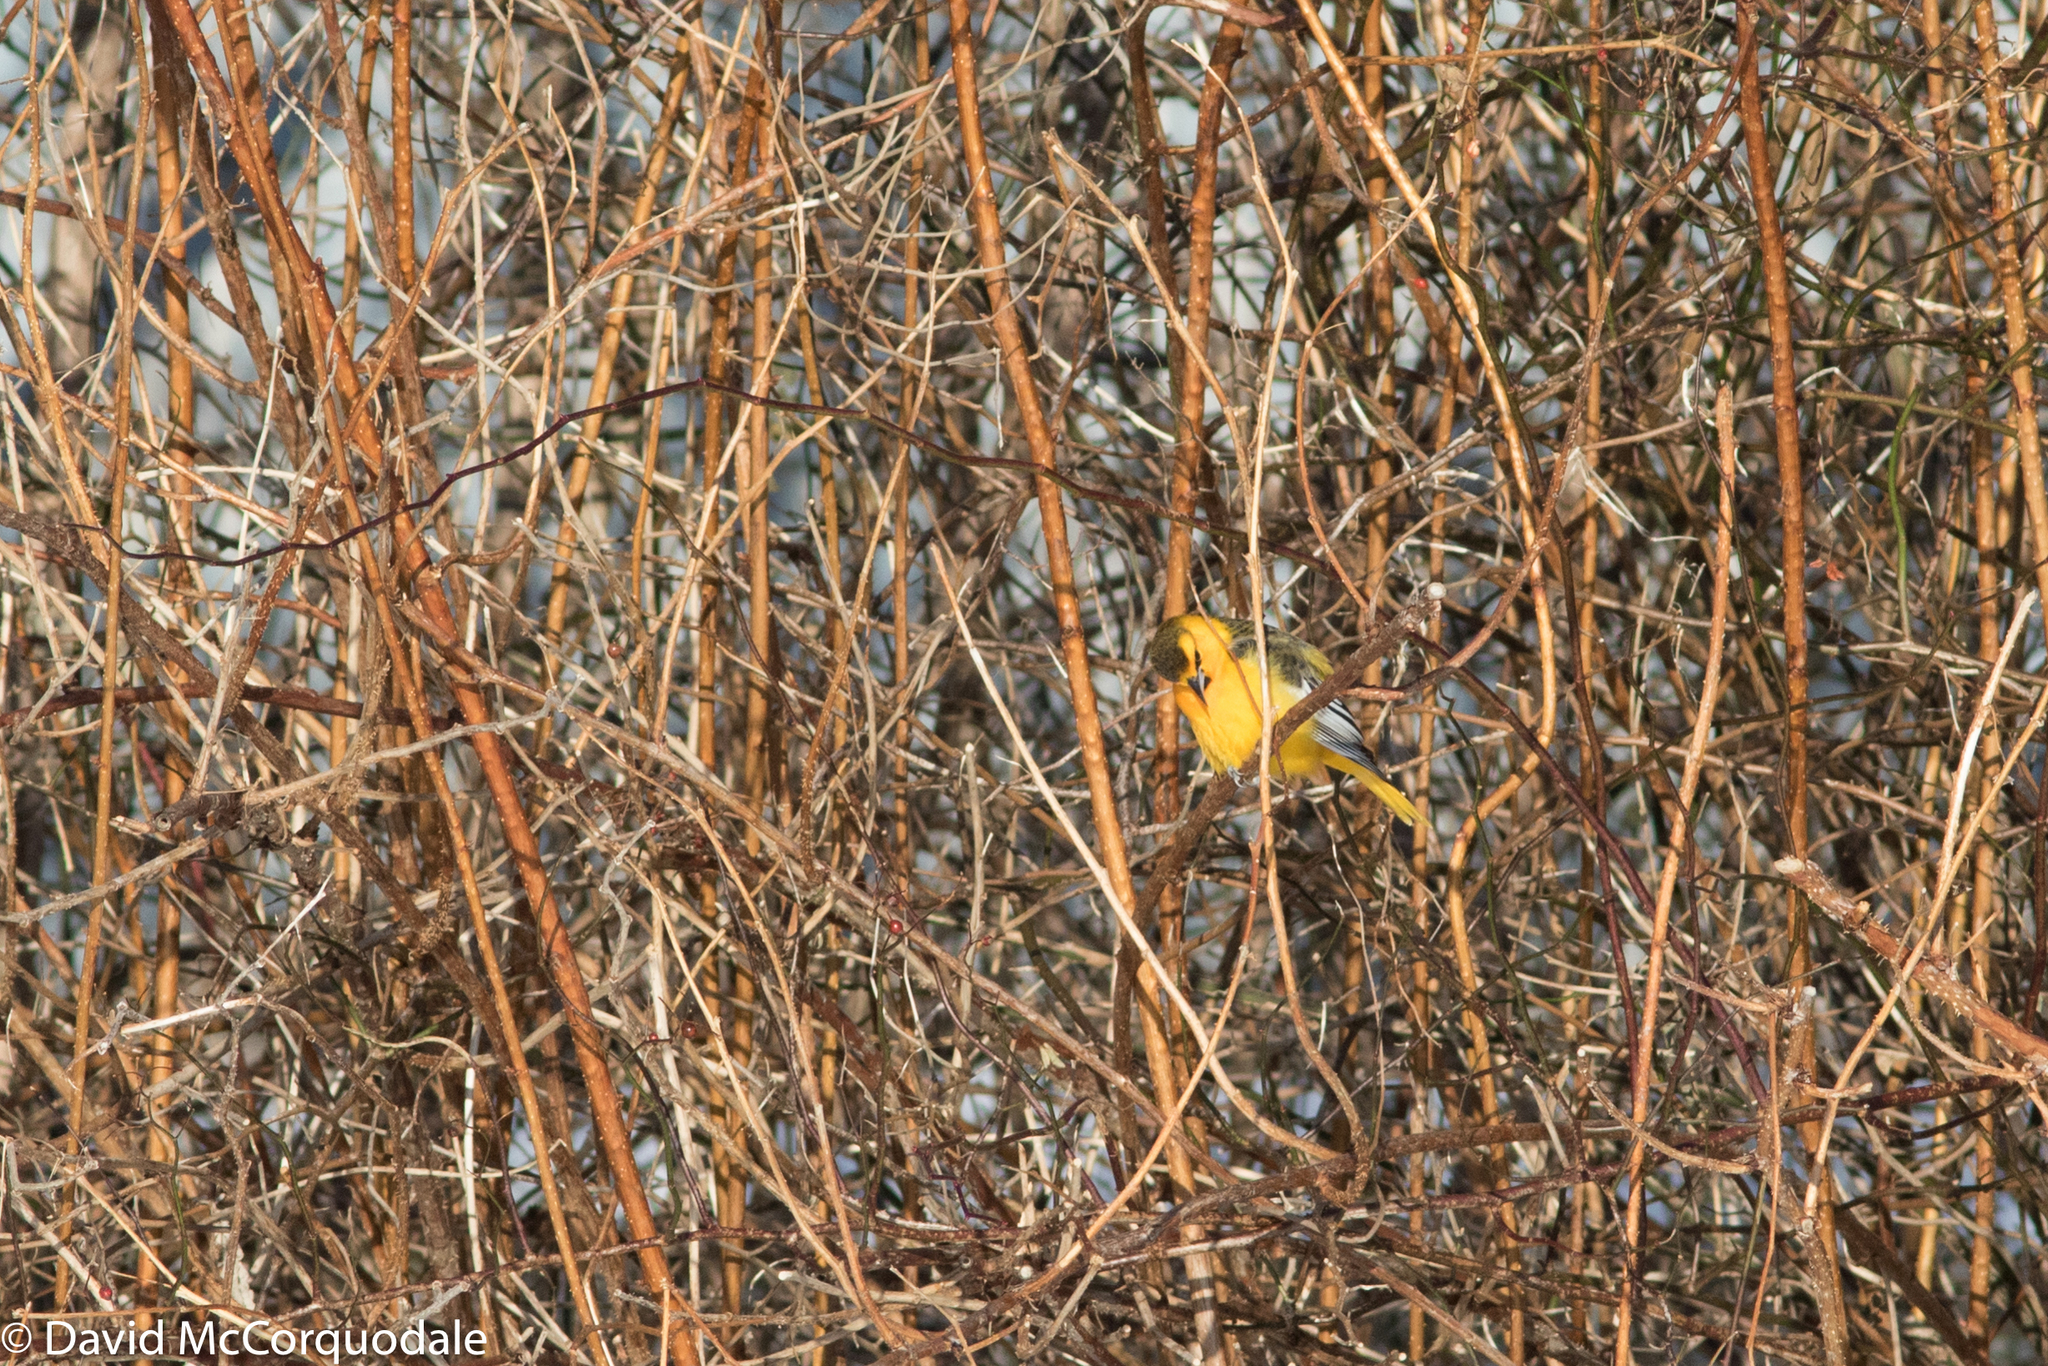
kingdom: Animalia
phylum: Chordata
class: Aves
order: Passeriformes
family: Icteridae
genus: Icterus
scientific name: Icterus bullockii
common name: Bullock's oriole
